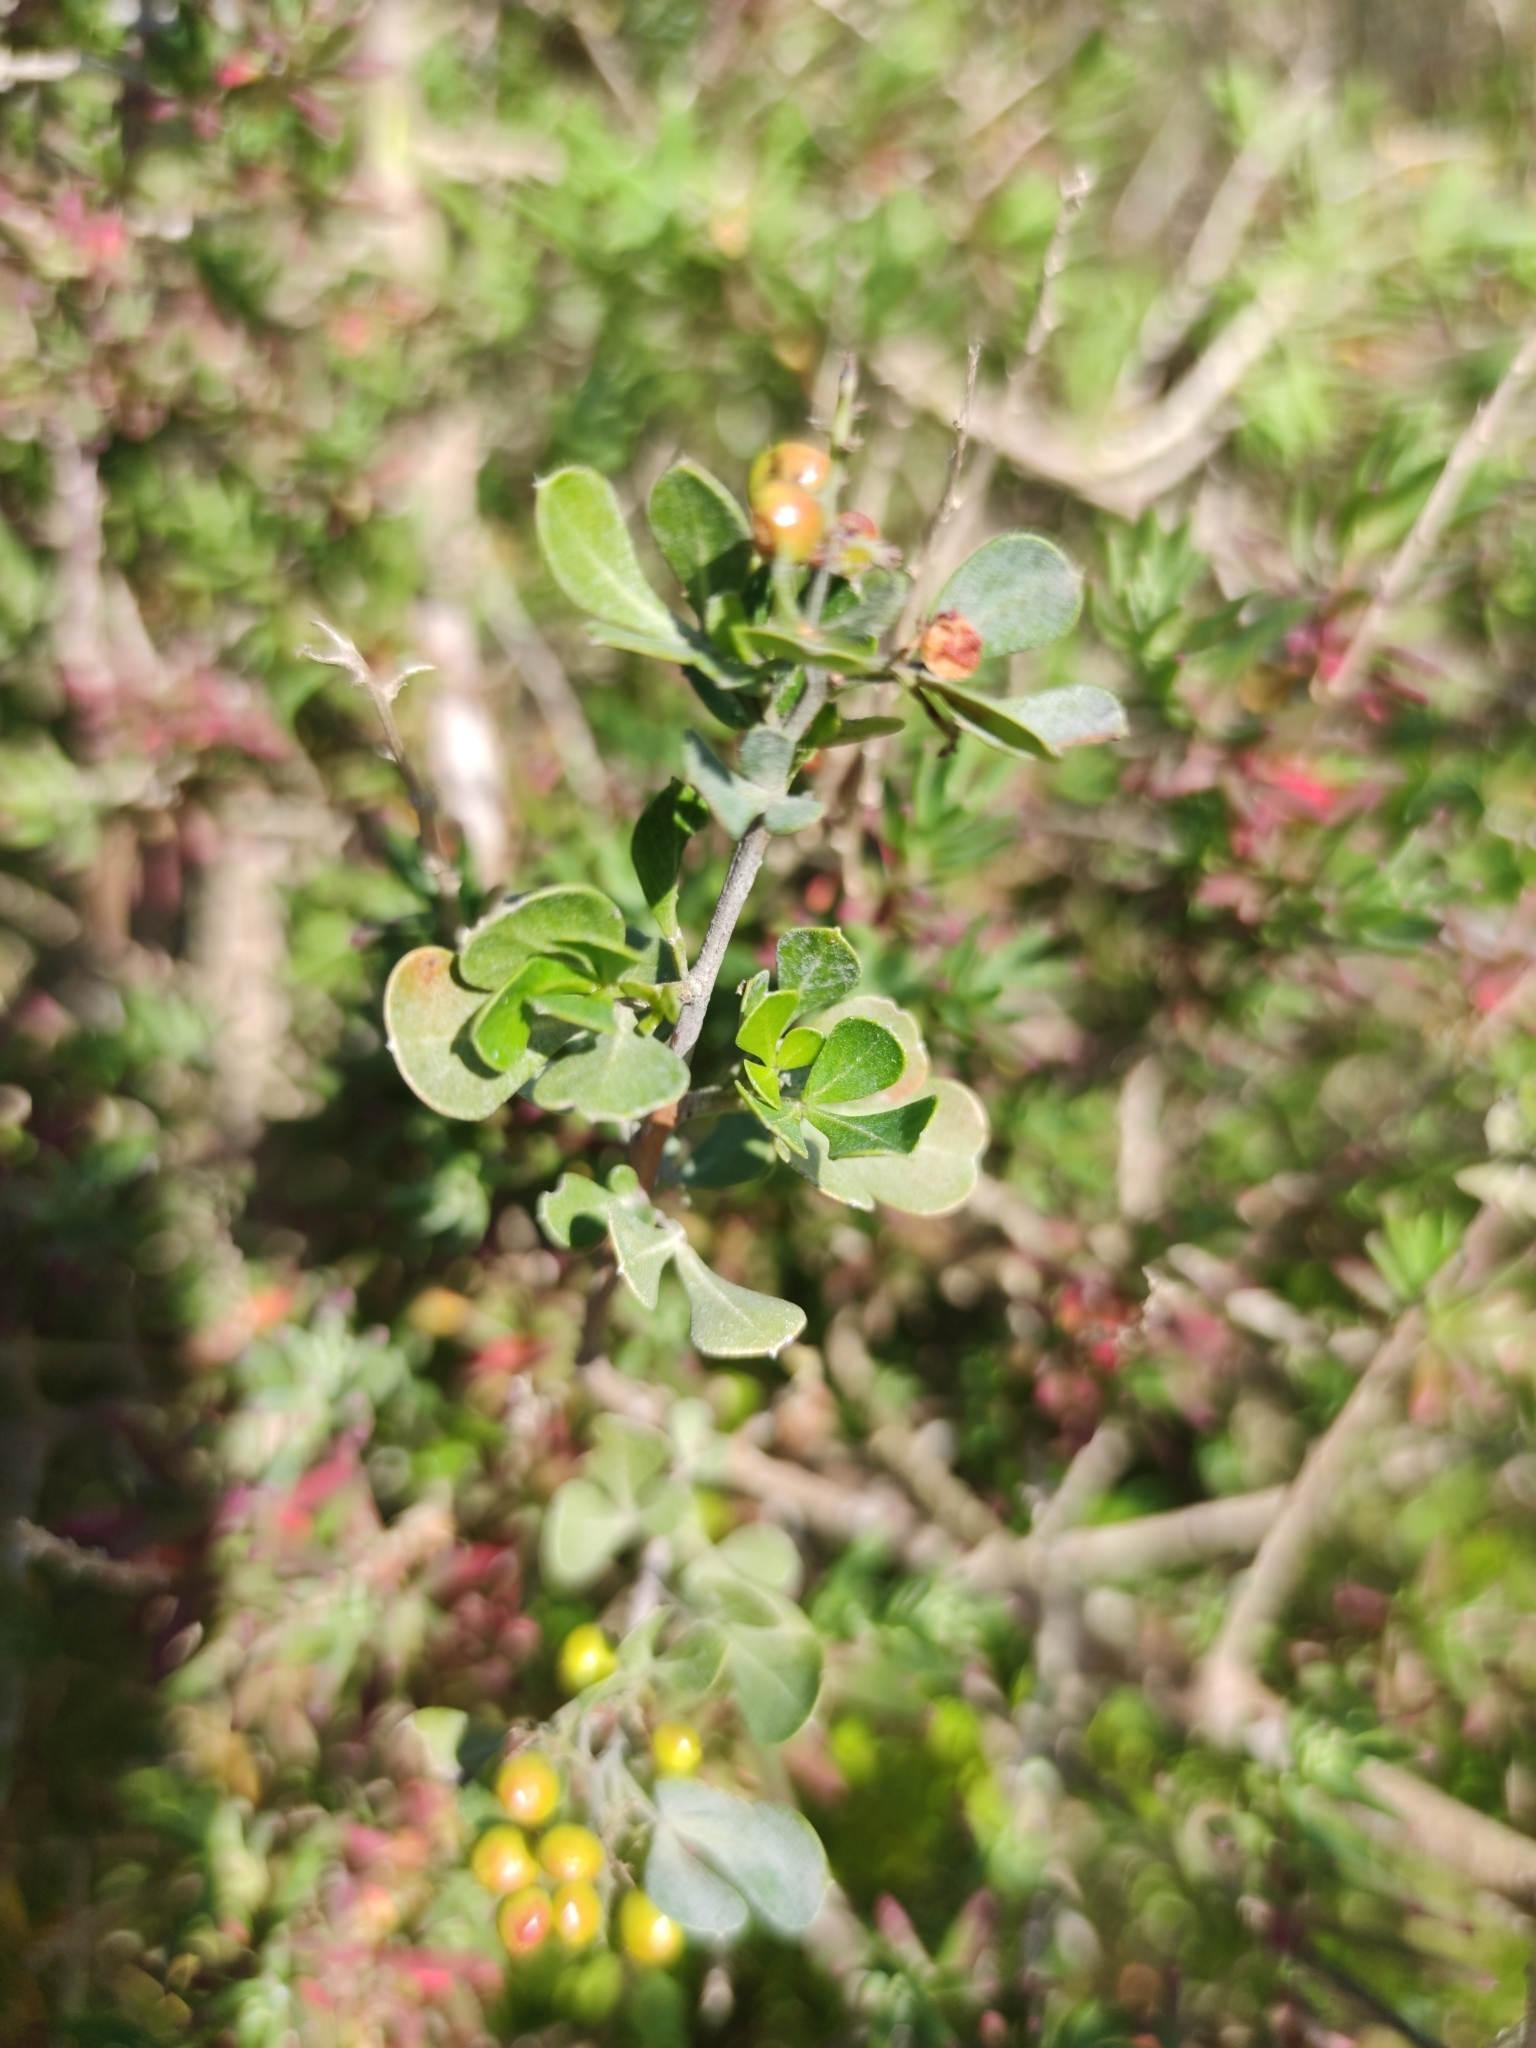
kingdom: Plantae
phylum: Tracheophyta
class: Magnoliopsida
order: Sapindales
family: Anacardiaceae
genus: Searsia
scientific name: Searsia glauca
